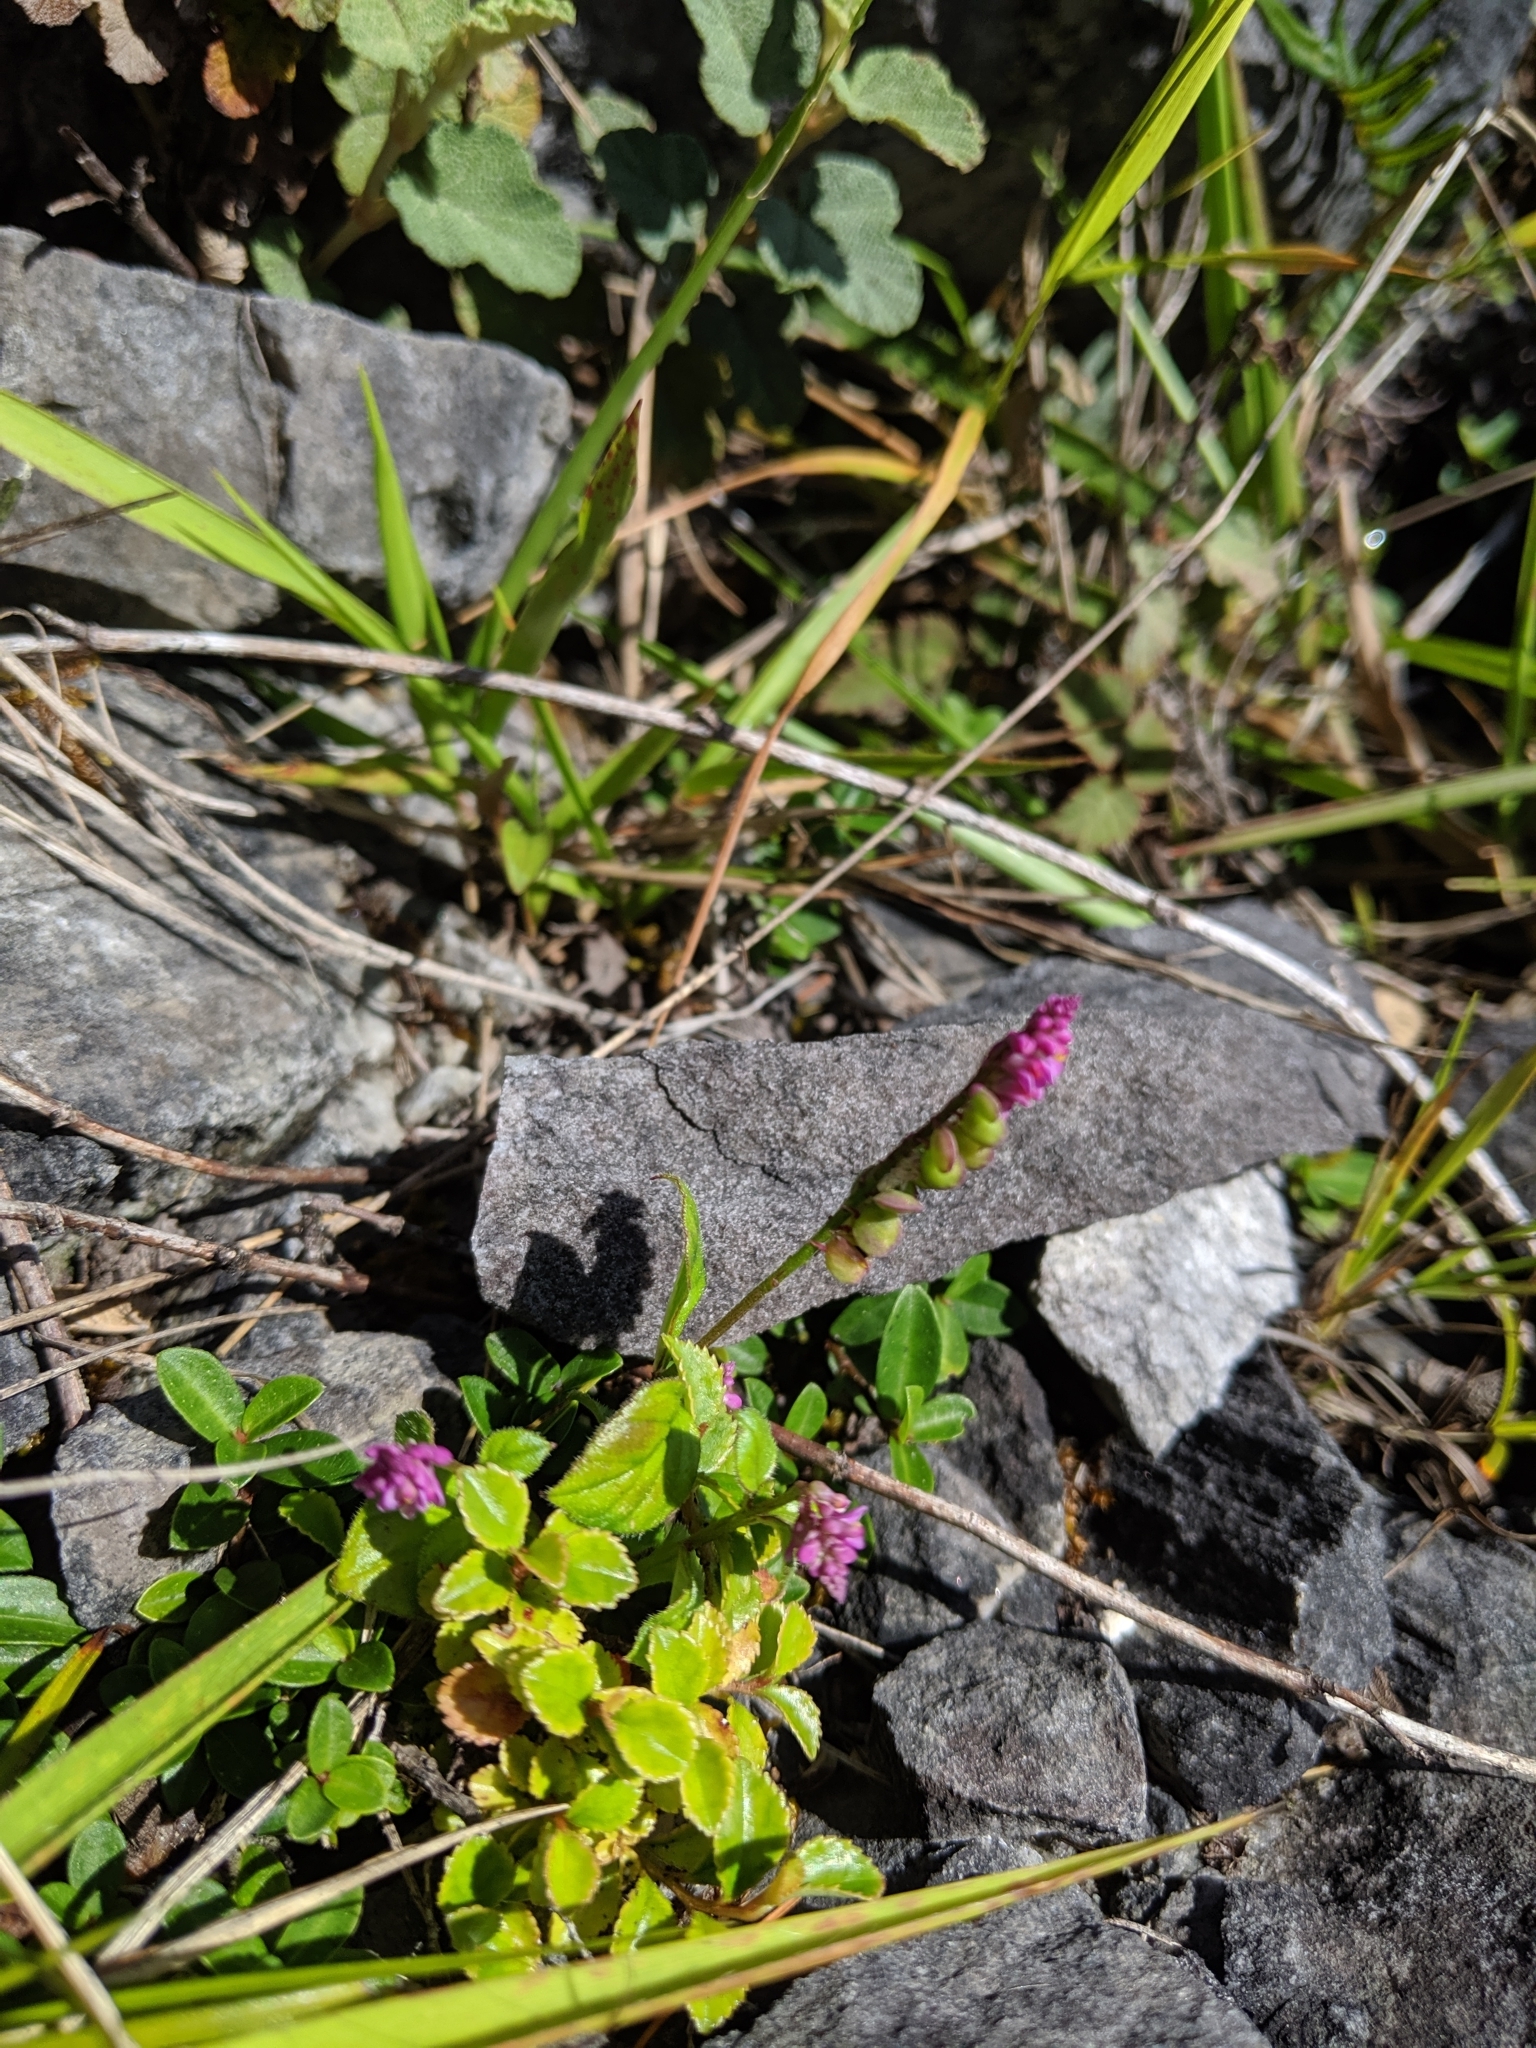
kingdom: Plantae
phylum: Tracheophyta
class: Magnoliopsida
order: Fabales
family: Polygalaceae
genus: Polygala
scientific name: Polygala tatarinowii
